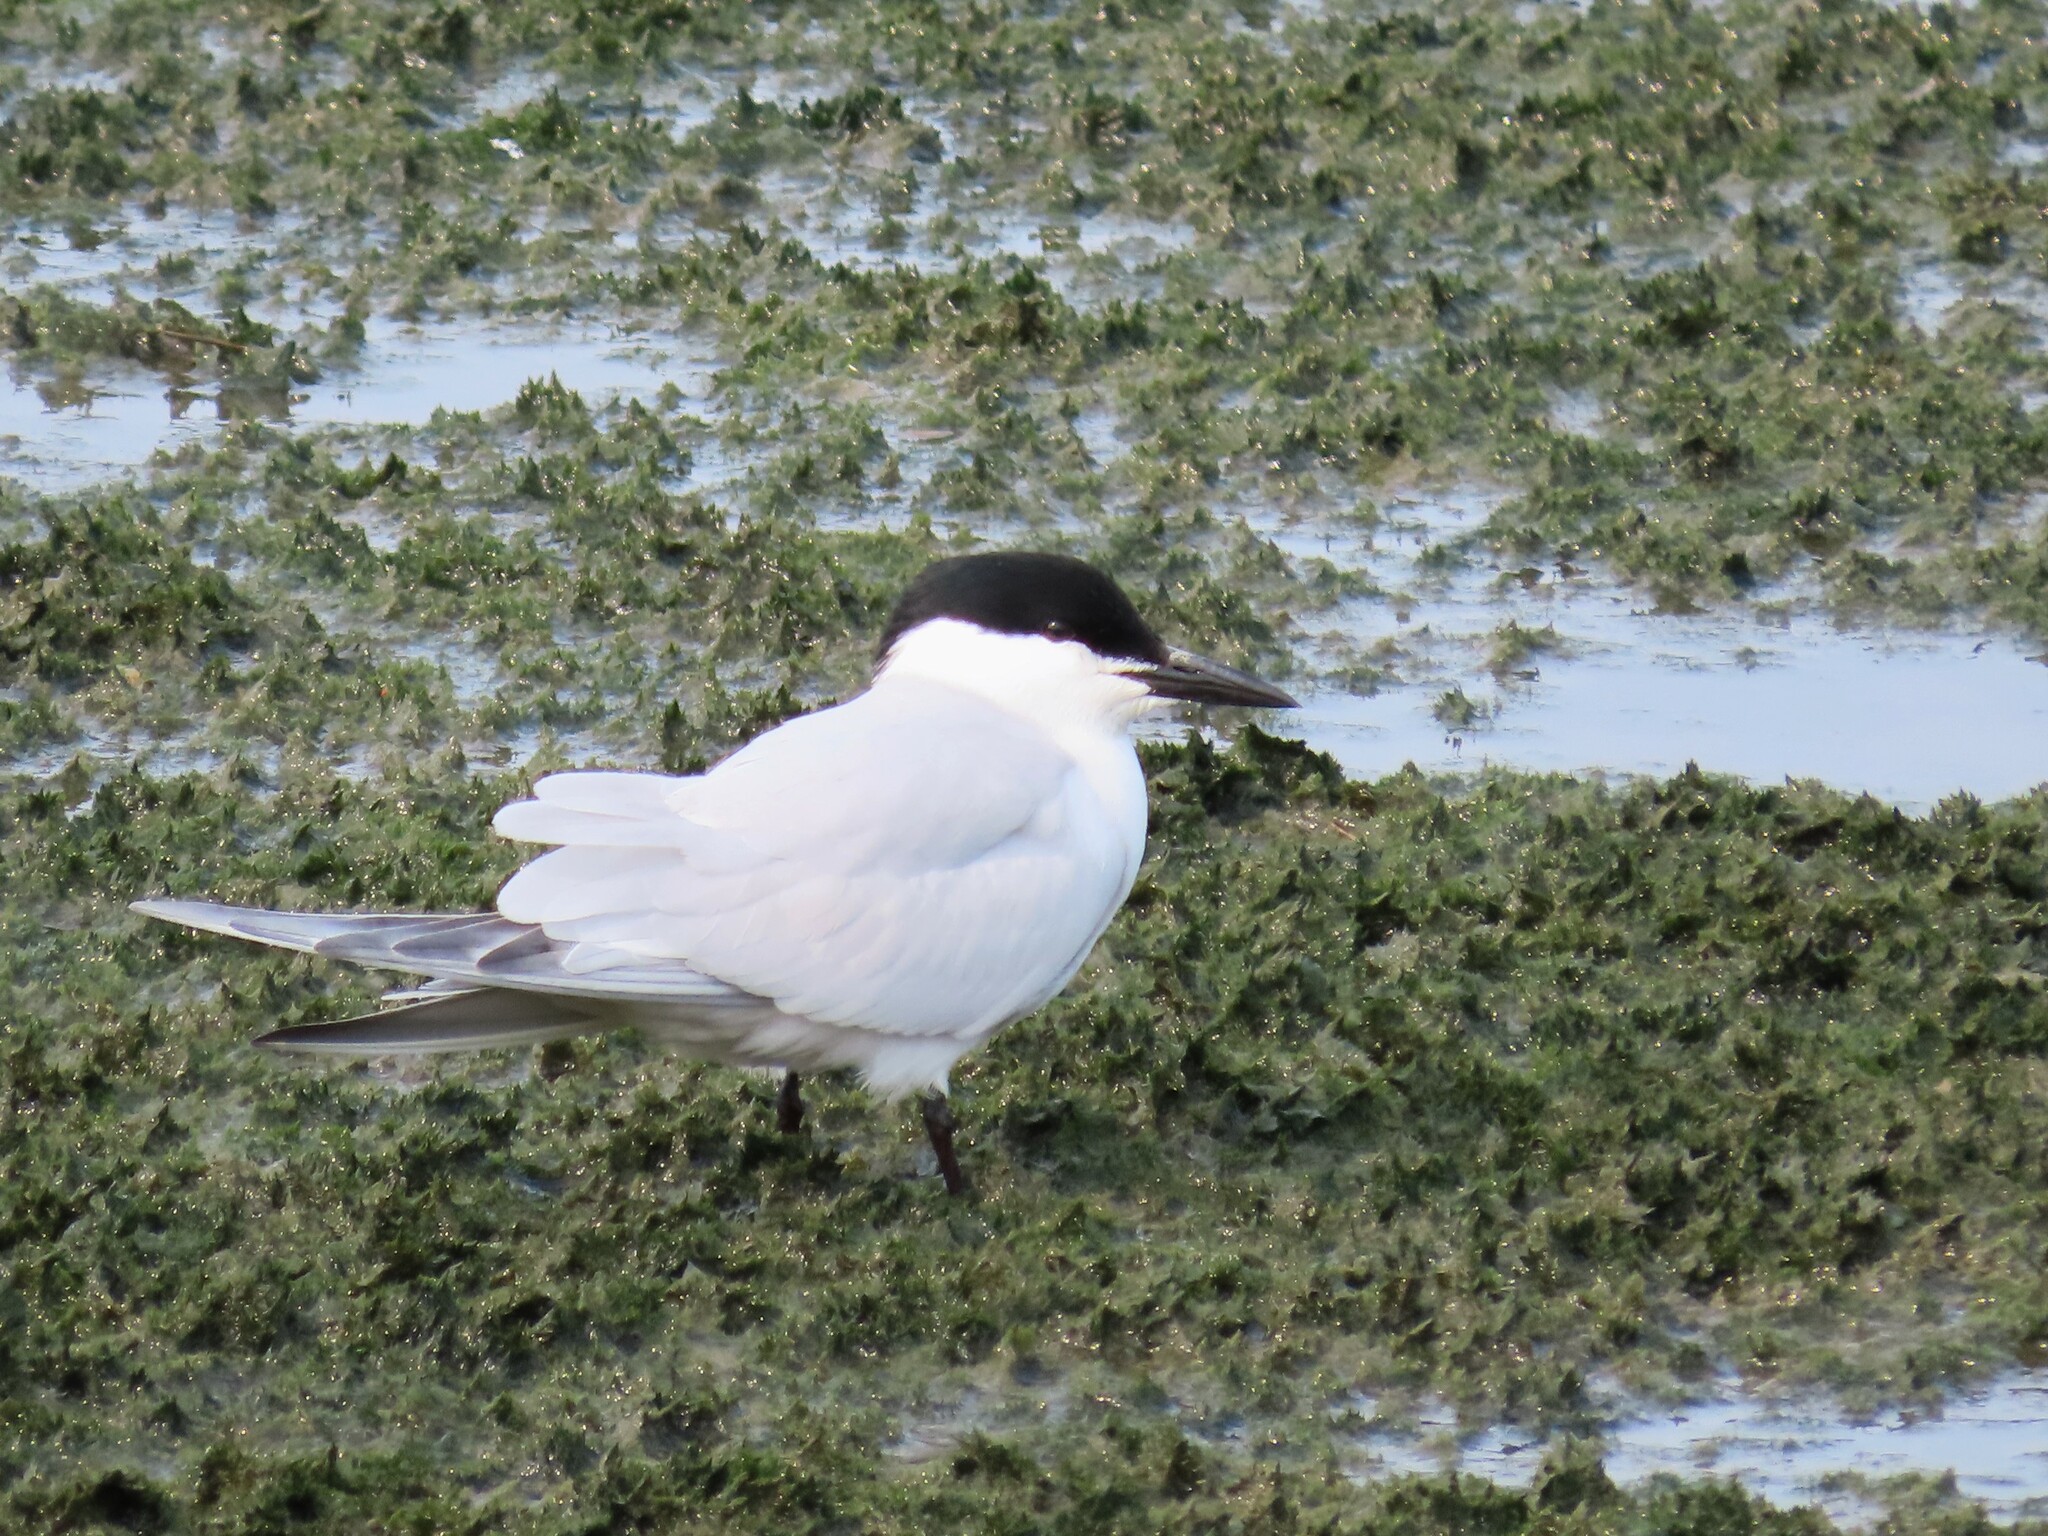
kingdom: Animalia
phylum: Chordata
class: Aves
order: Charadriiformes
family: Laridae
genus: Gelochelidon
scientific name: Gelochelidon nilotica
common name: Gull-billed tern
